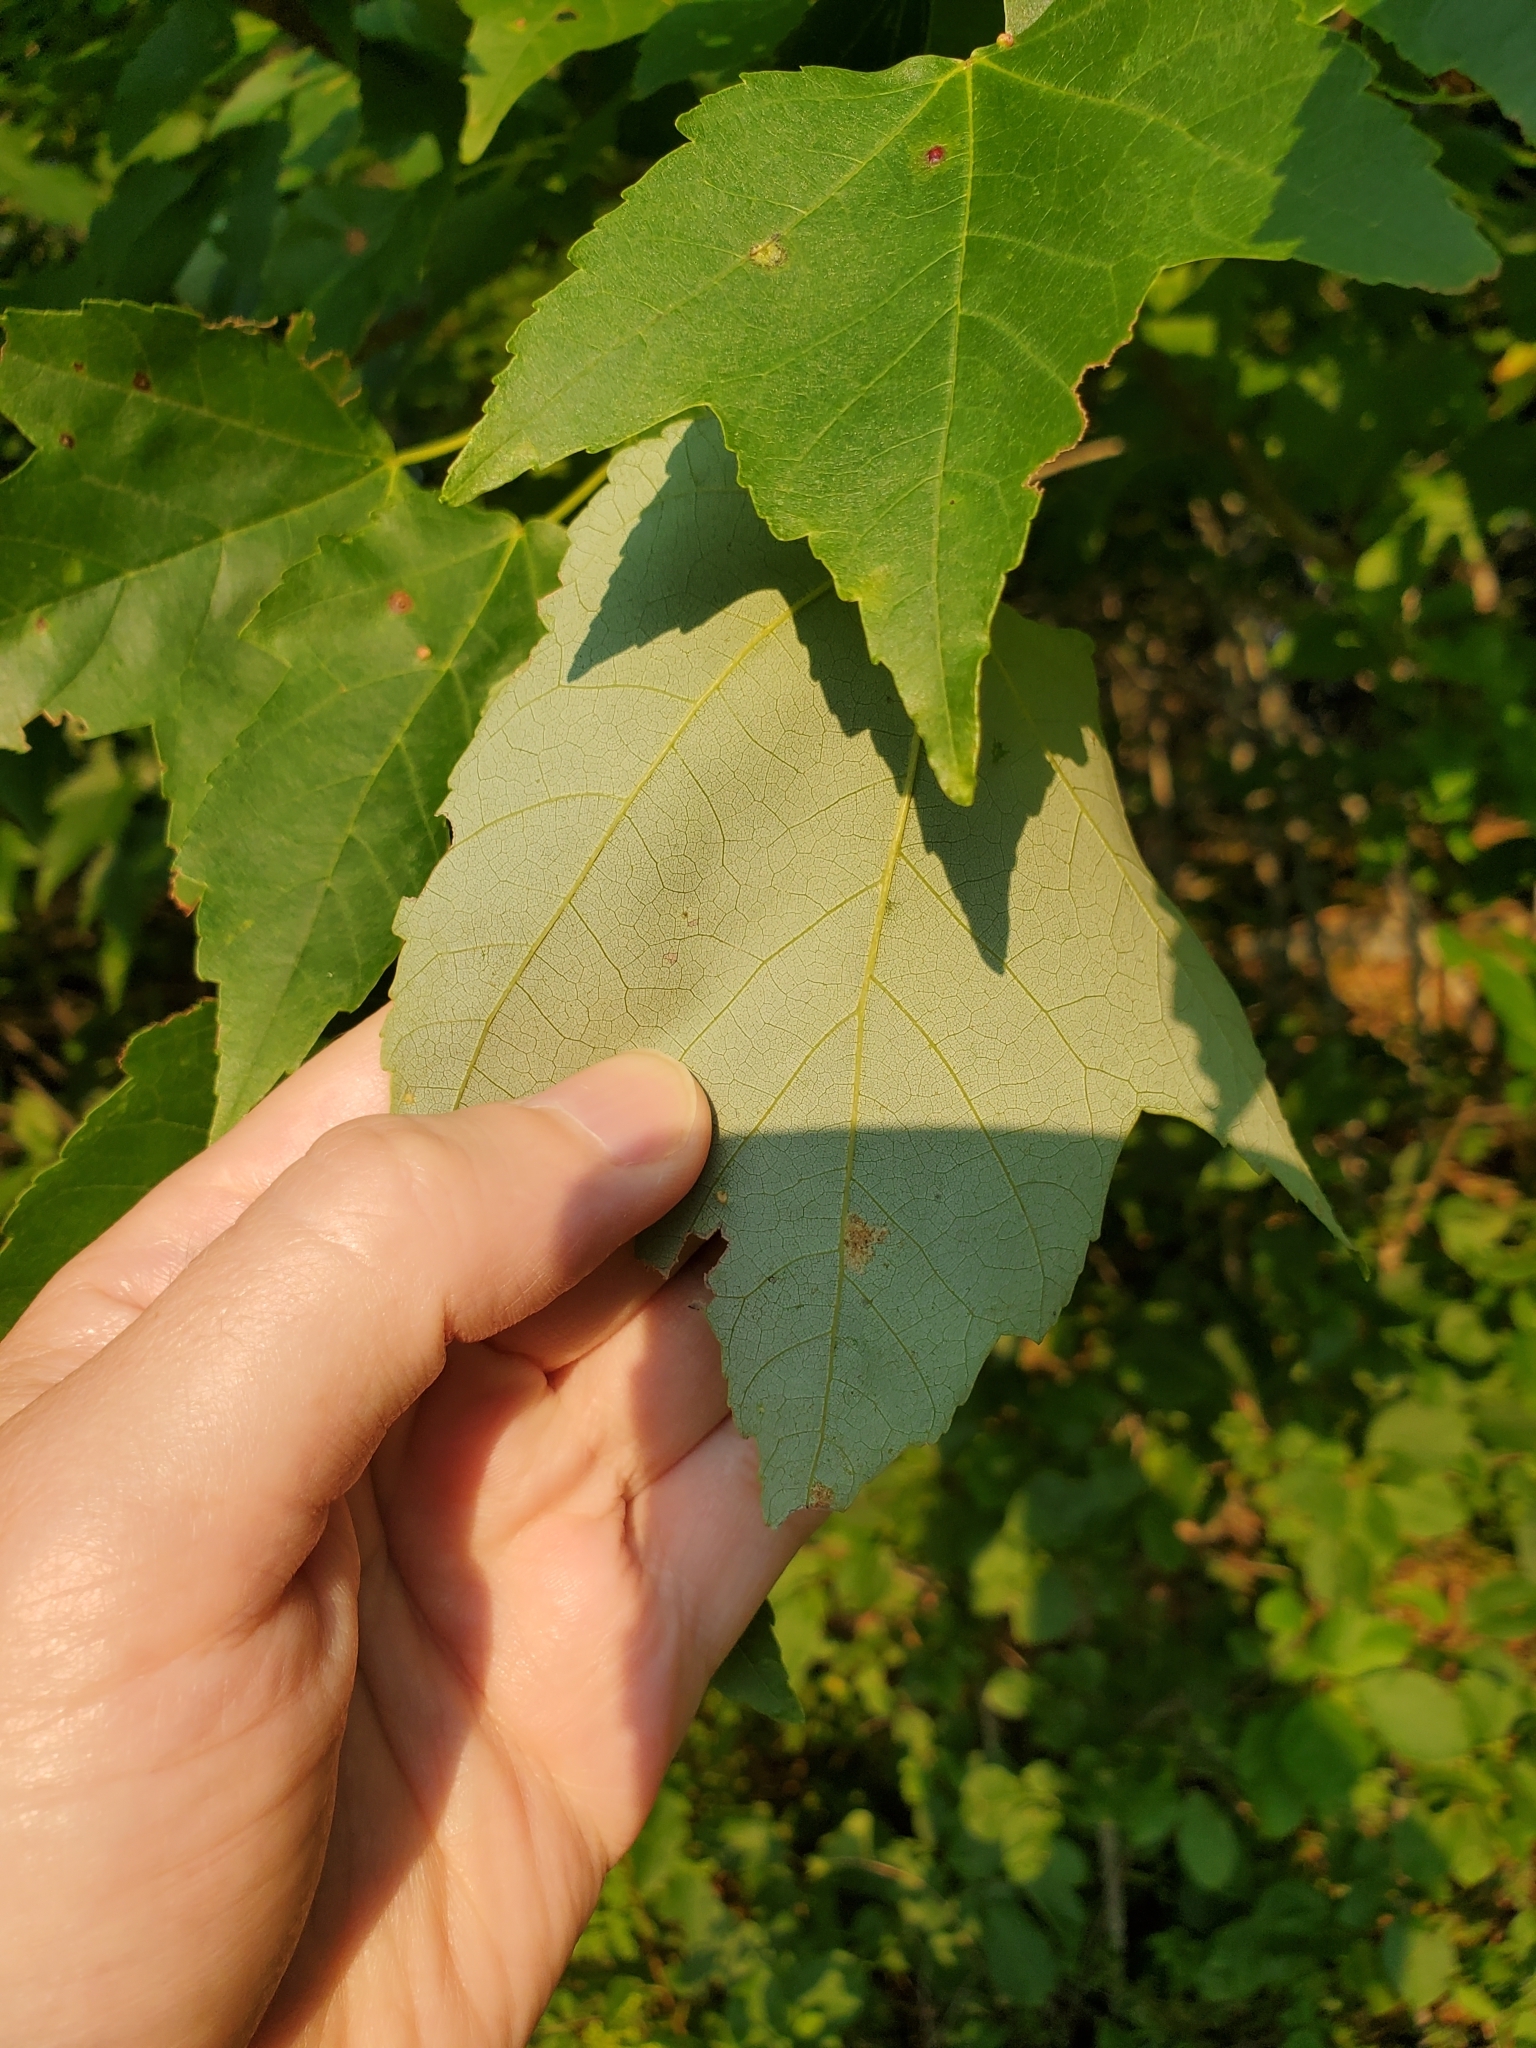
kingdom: Plantae
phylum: Tracheophyta
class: Magnoliopsida
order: Sapindales
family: Sapindaceae
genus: Acer
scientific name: Acer rubrum
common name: Red maple
